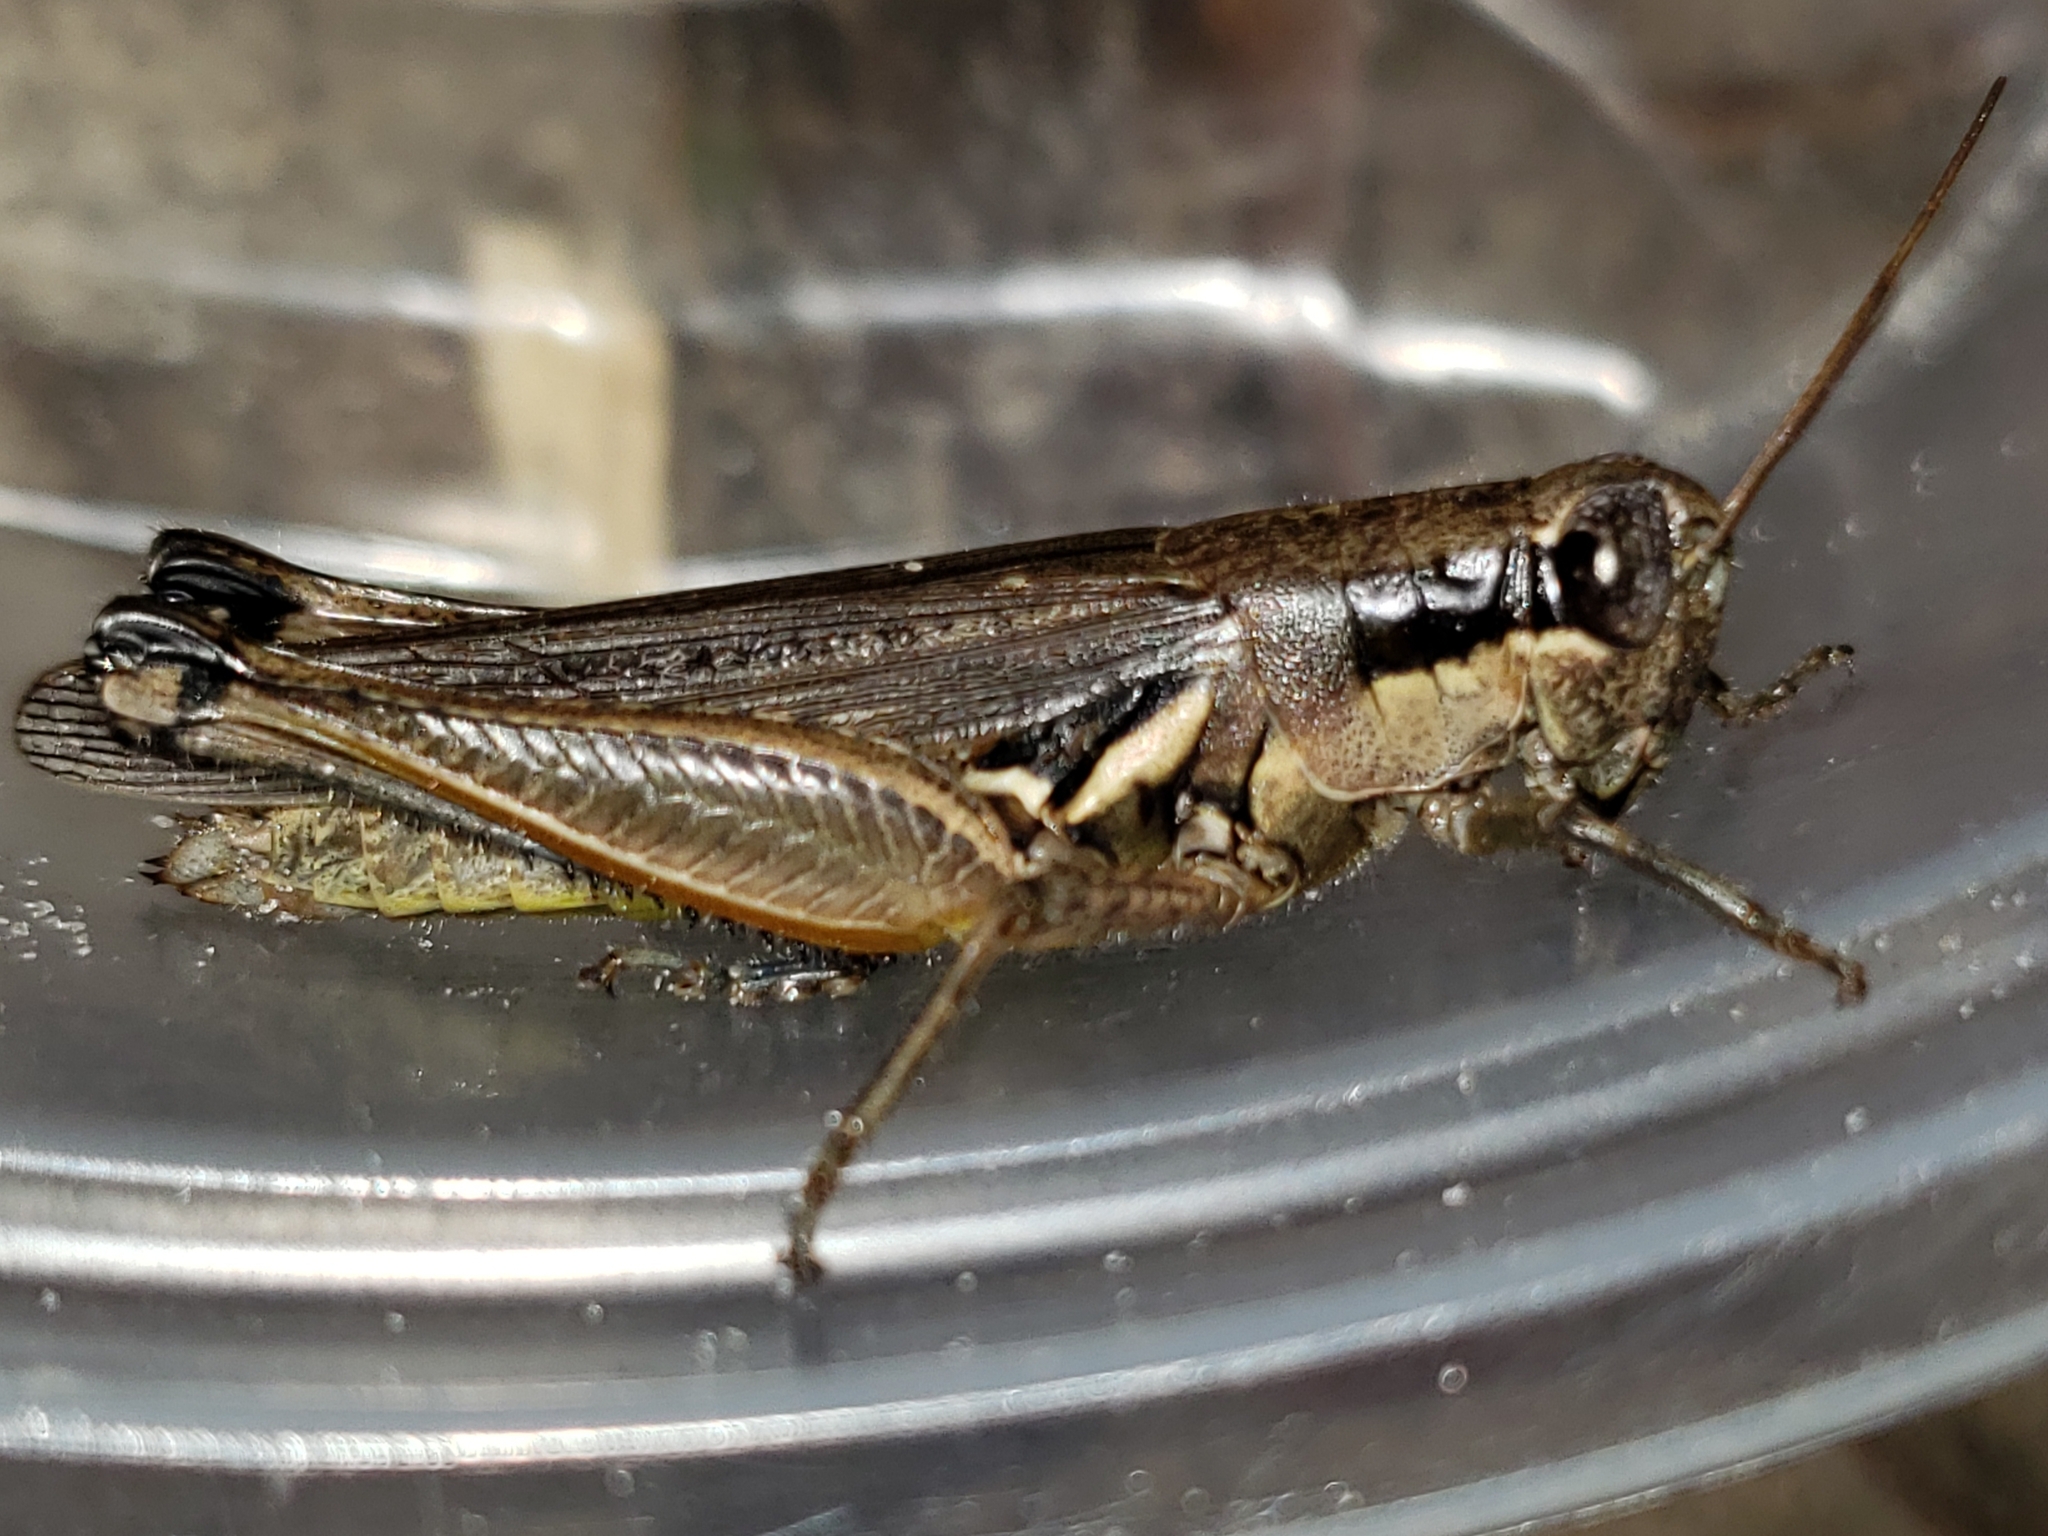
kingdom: Animalia
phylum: Arthropoda
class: Insecta
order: Orthoptera
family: Acrididae
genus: Paroxya
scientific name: Paroxya atlantica
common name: Atlantic grasshopper
